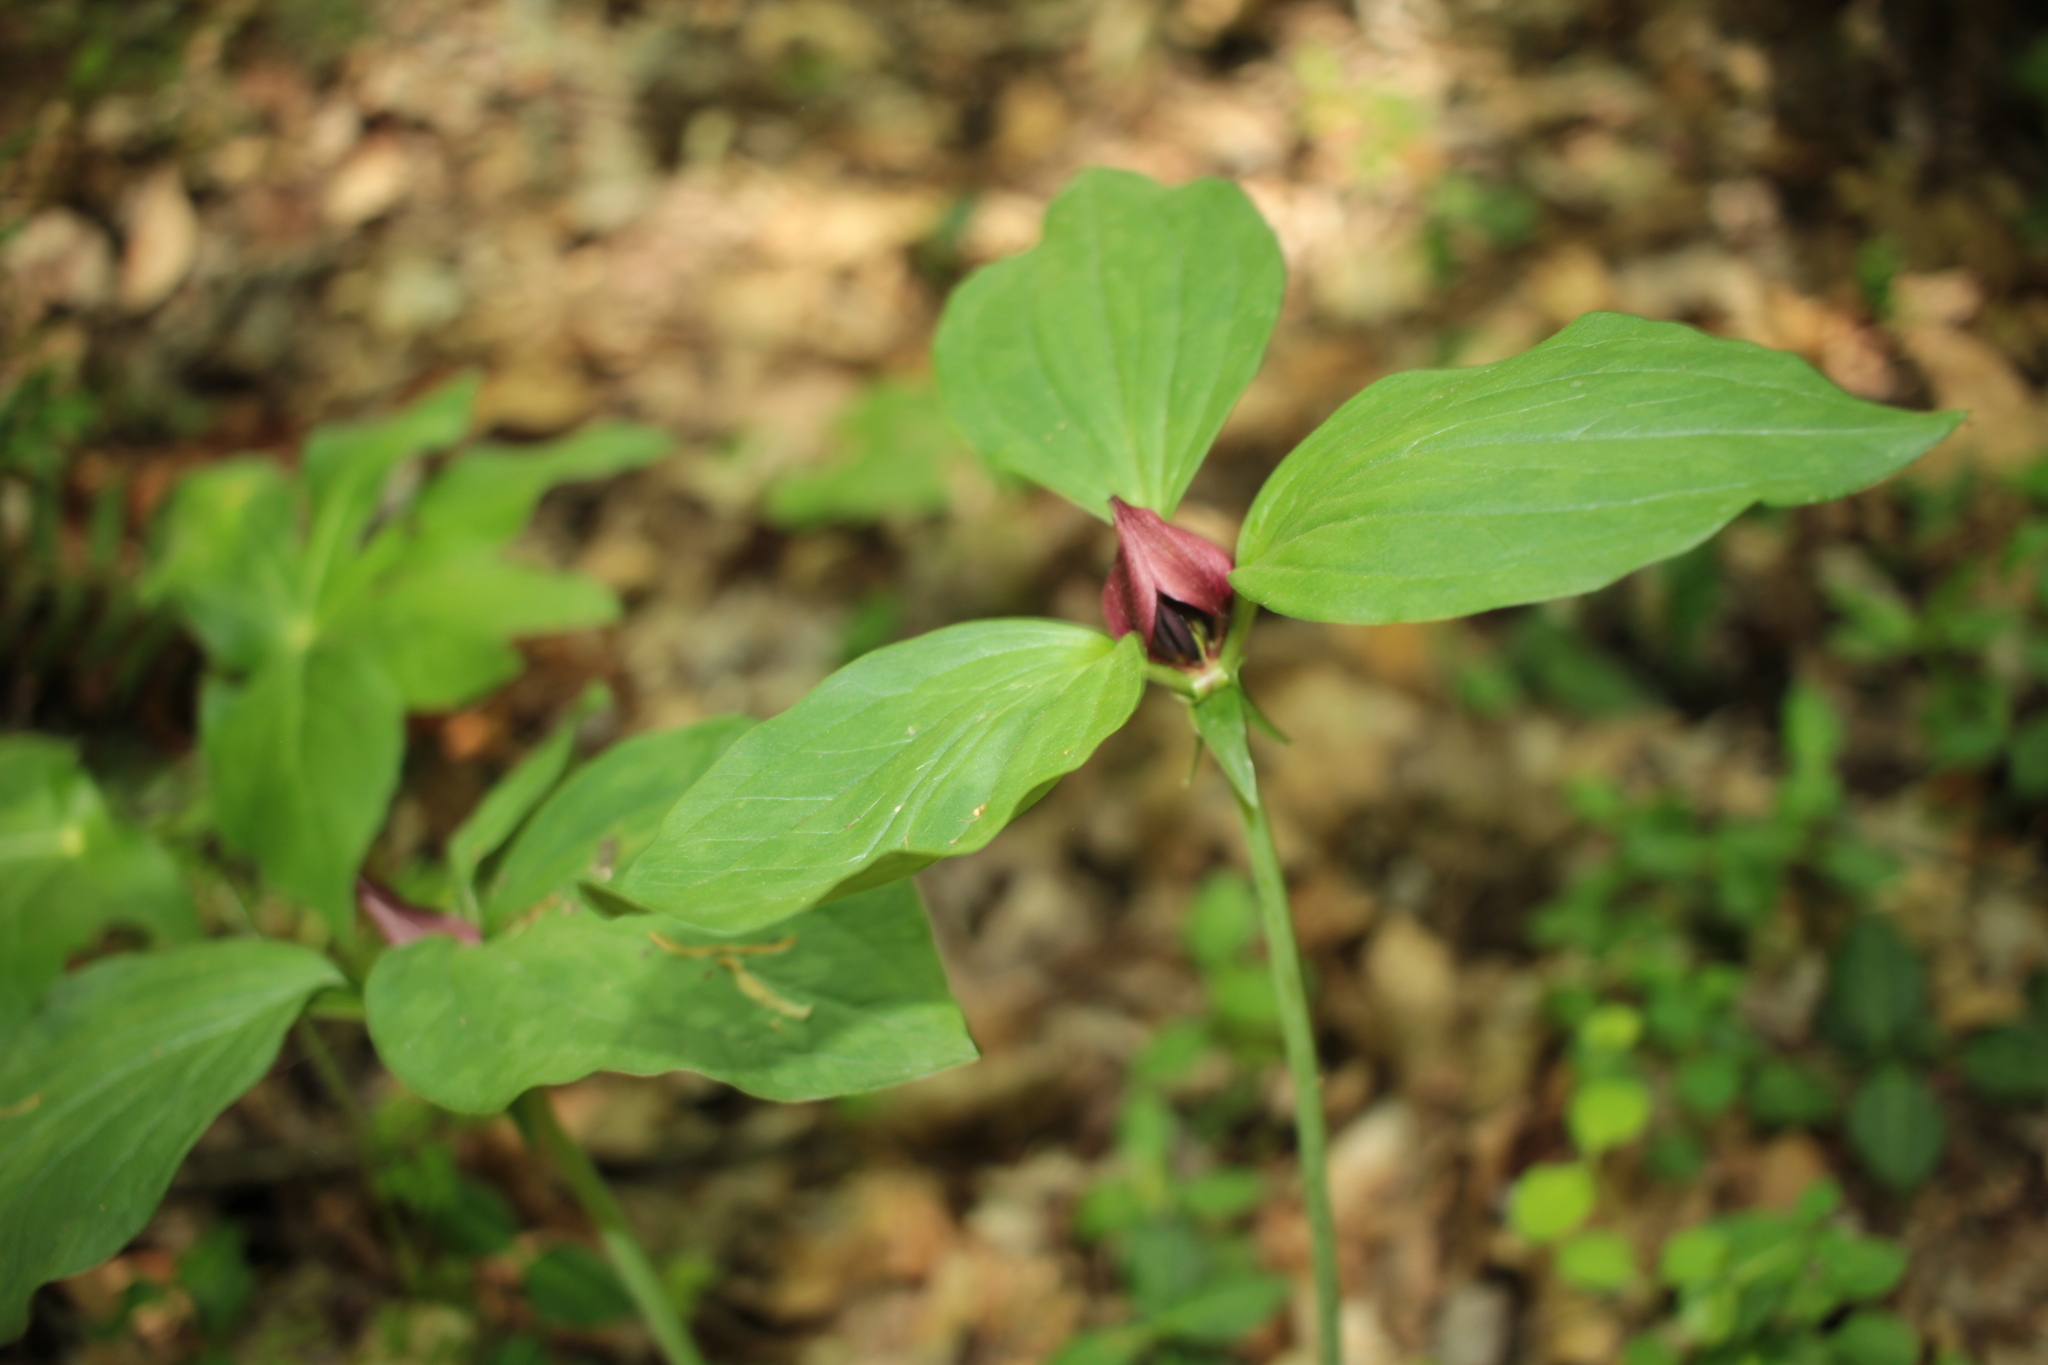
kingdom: Plantae
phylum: Tracheophyta
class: Liliopsida
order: Liliales
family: Melanthiaceae
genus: Trillium
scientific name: Trillium recurvatum
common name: Bloody butcher
